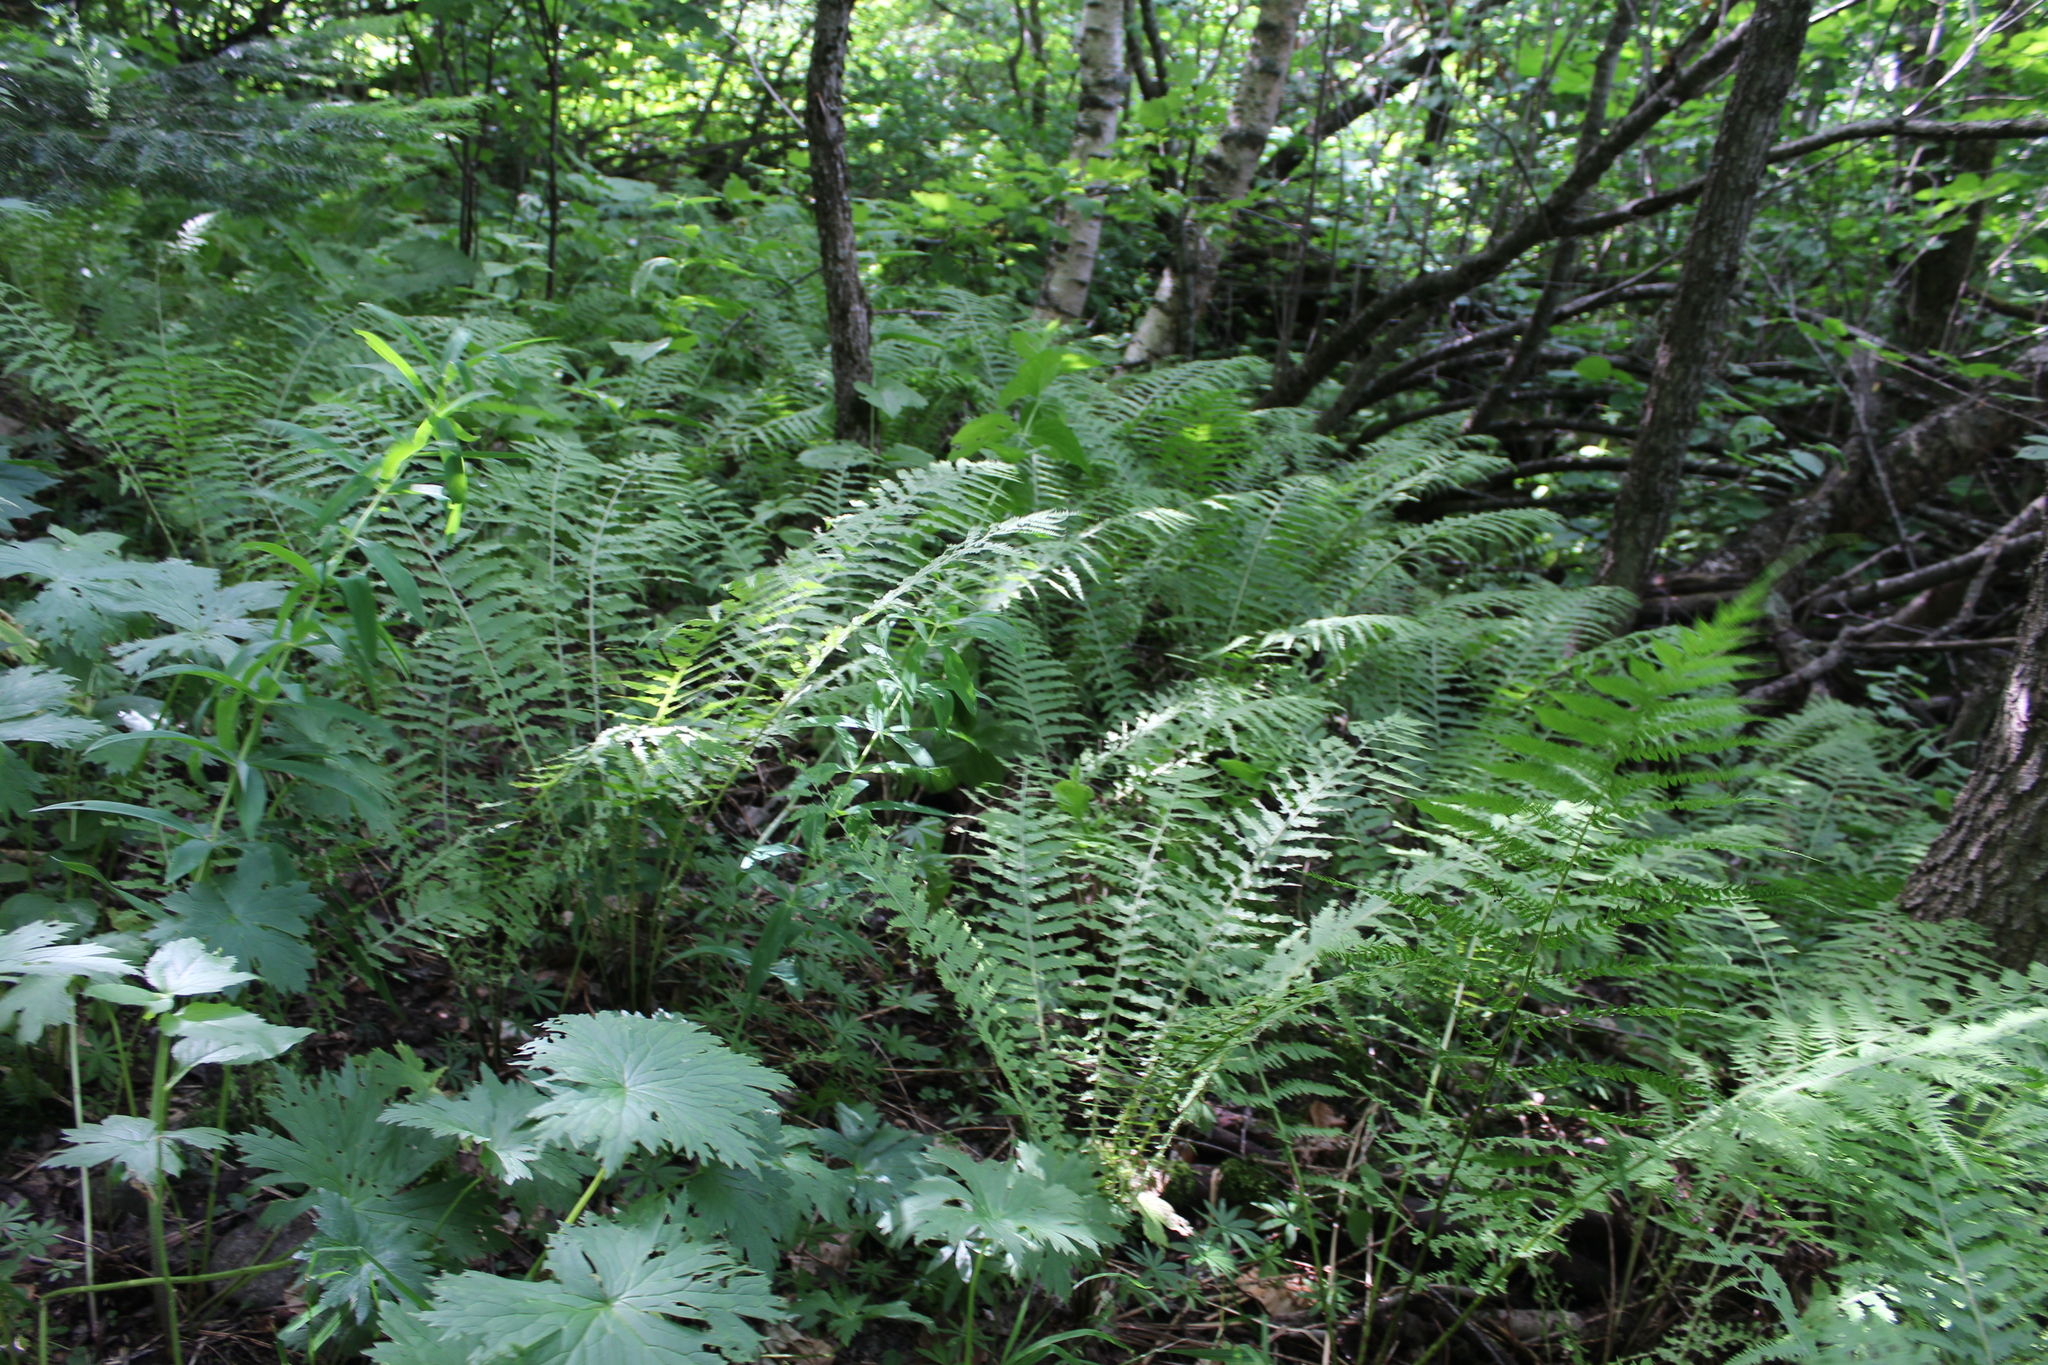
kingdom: Plantae
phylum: Tracheophyta
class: Polypodiopsida
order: Polypodiales
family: Onocleaceae
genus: Matteuccia
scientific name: Matteuccia struthiopteris
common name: Ostrich fern
